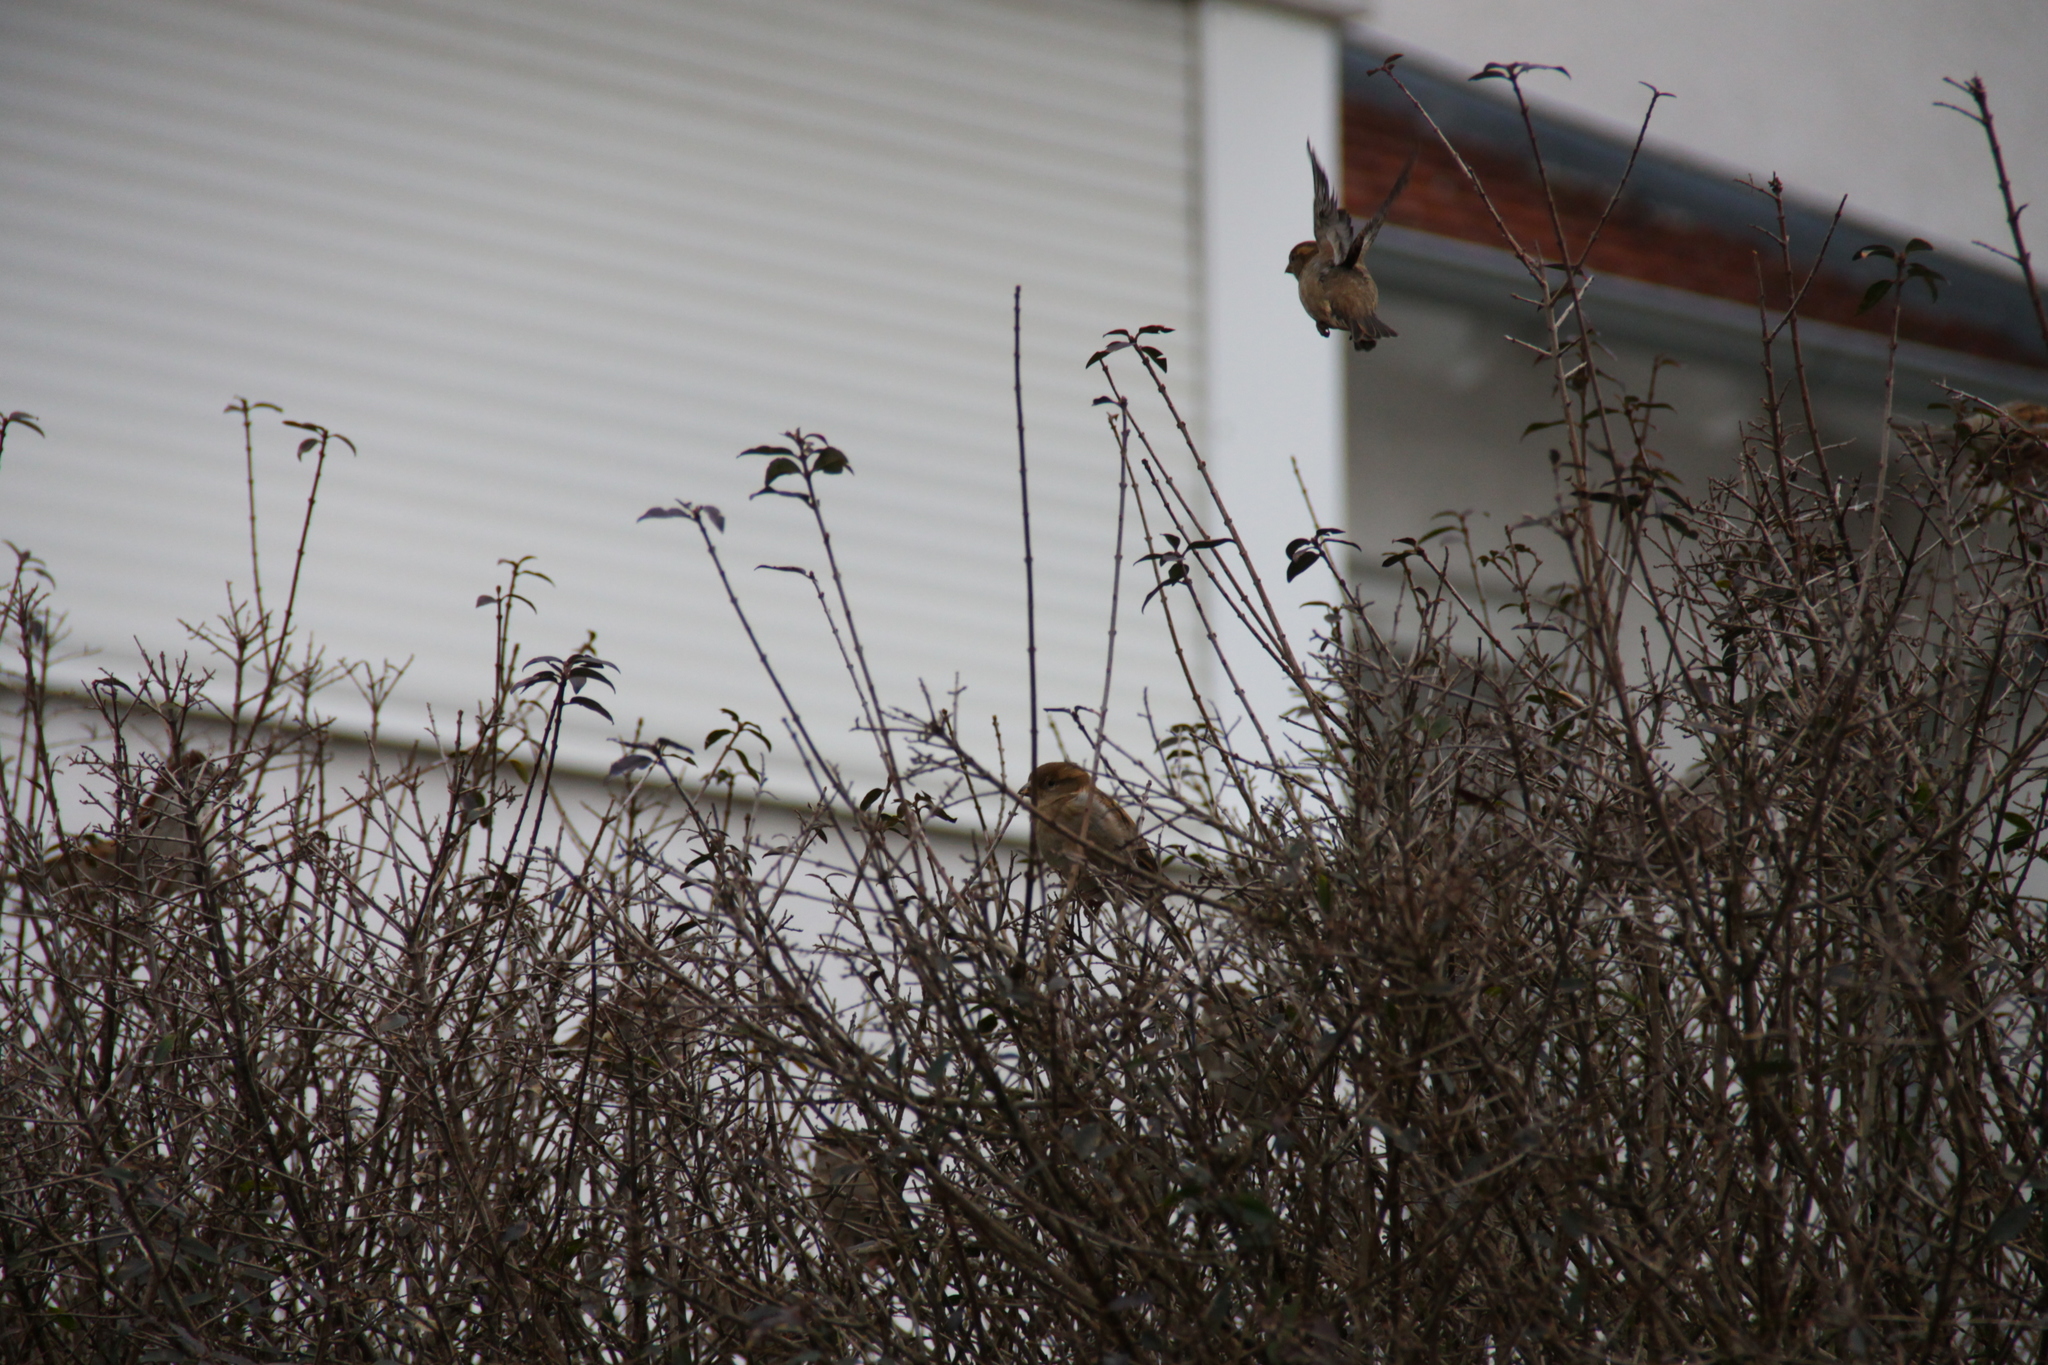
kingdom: Animalia
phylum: Chordata
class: Aves
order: Passeriformes
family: Passeridae
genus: Passer
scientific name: Passer domesticus
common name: House sparrow
